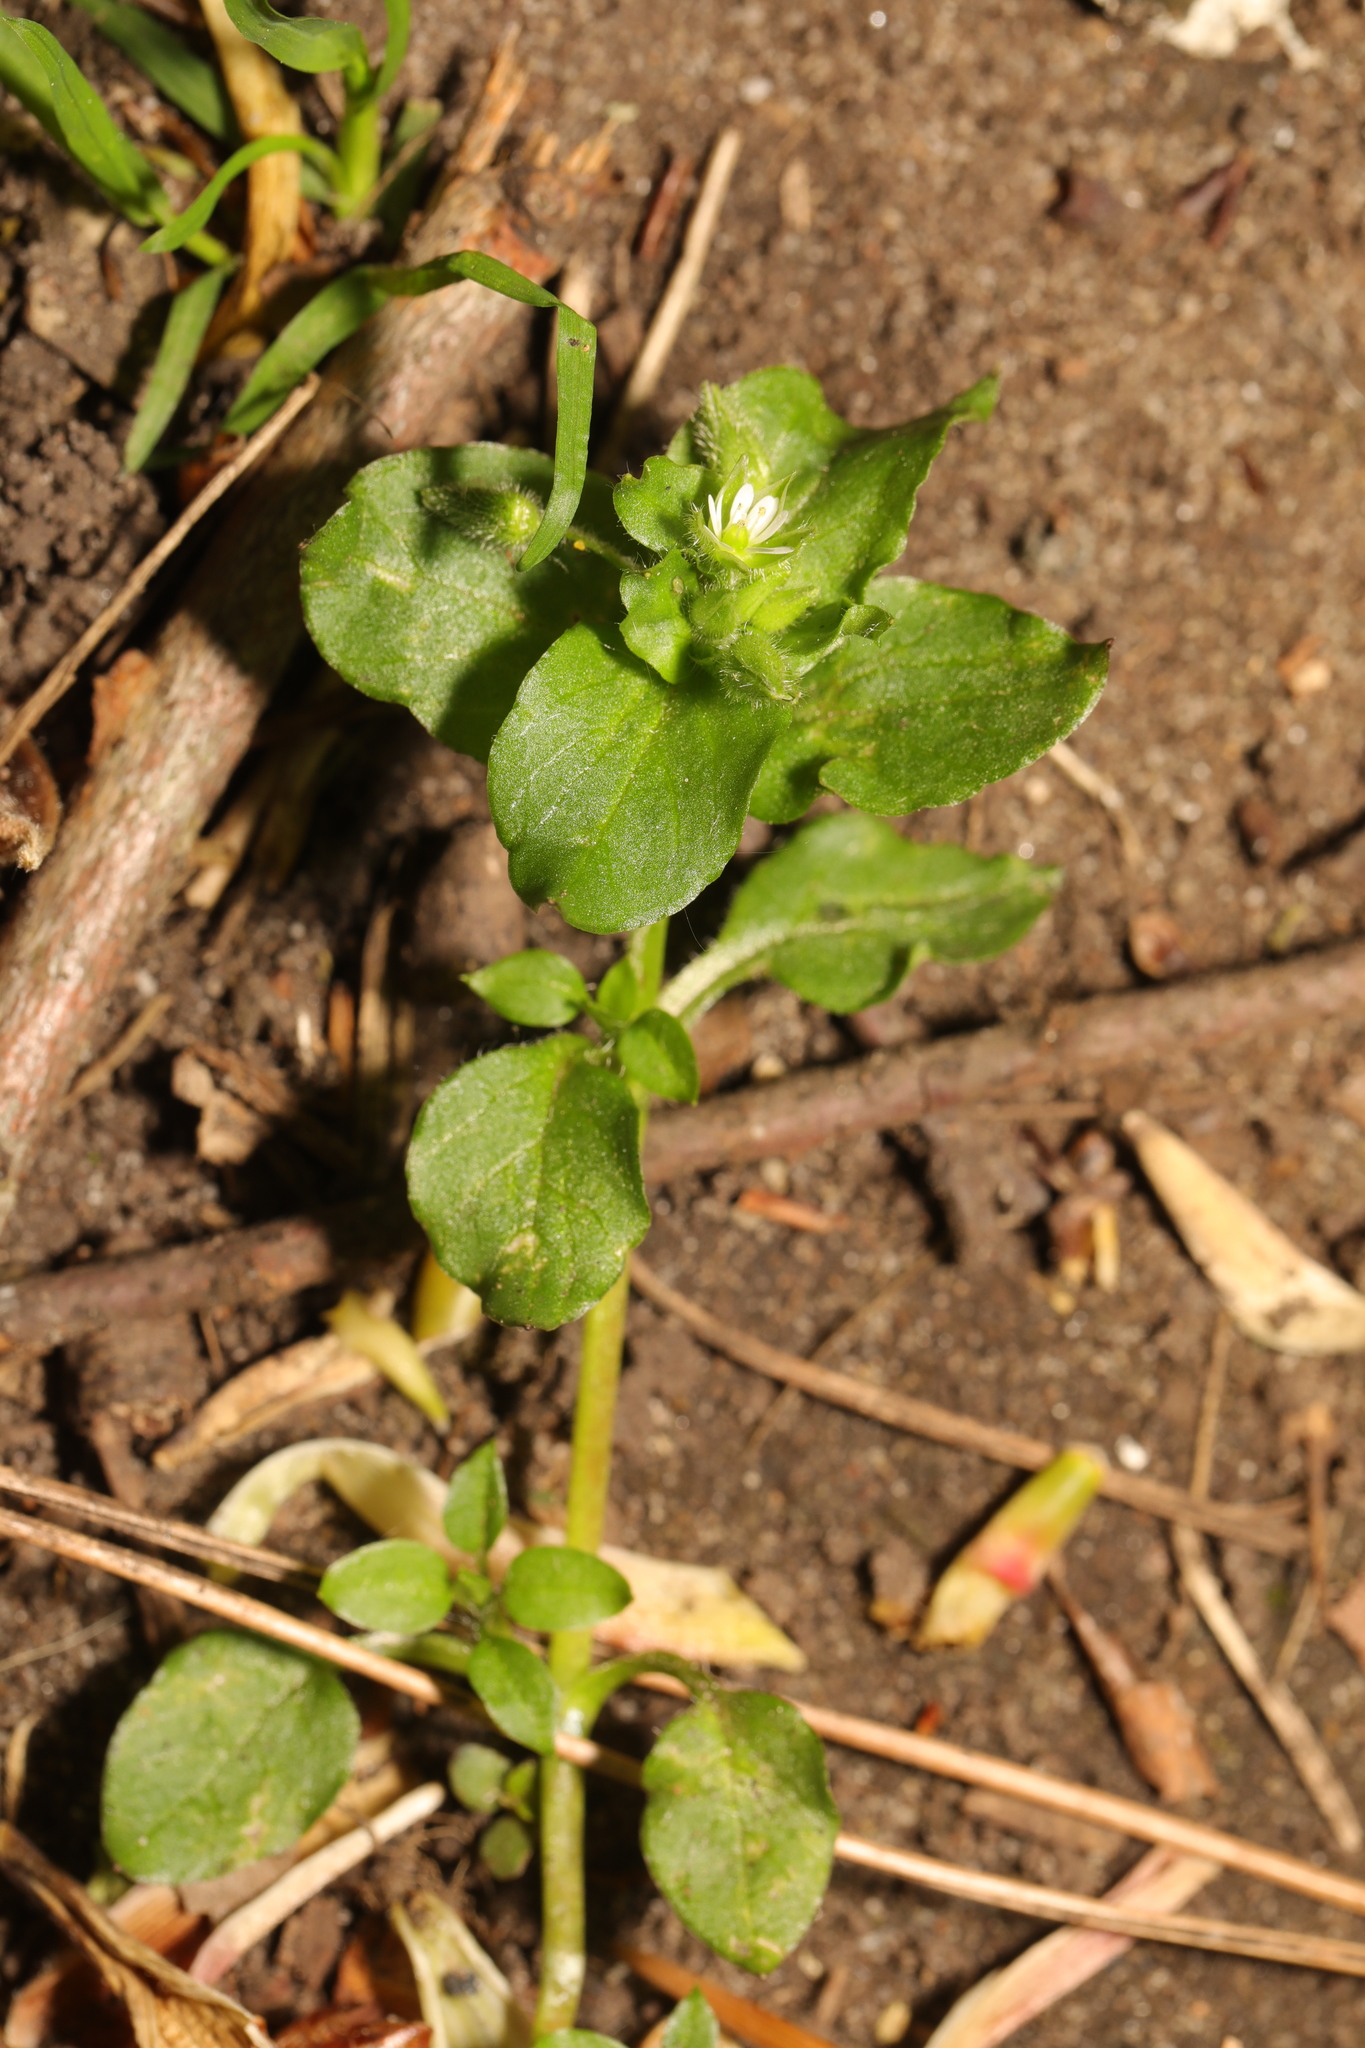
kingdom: Plantae
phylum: Tracheophyta
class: Magnoliopsida
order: Caryophyllales
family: Caryophyllaceae
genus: Stellaria
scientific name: Stellaria media
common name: Common chickweed
